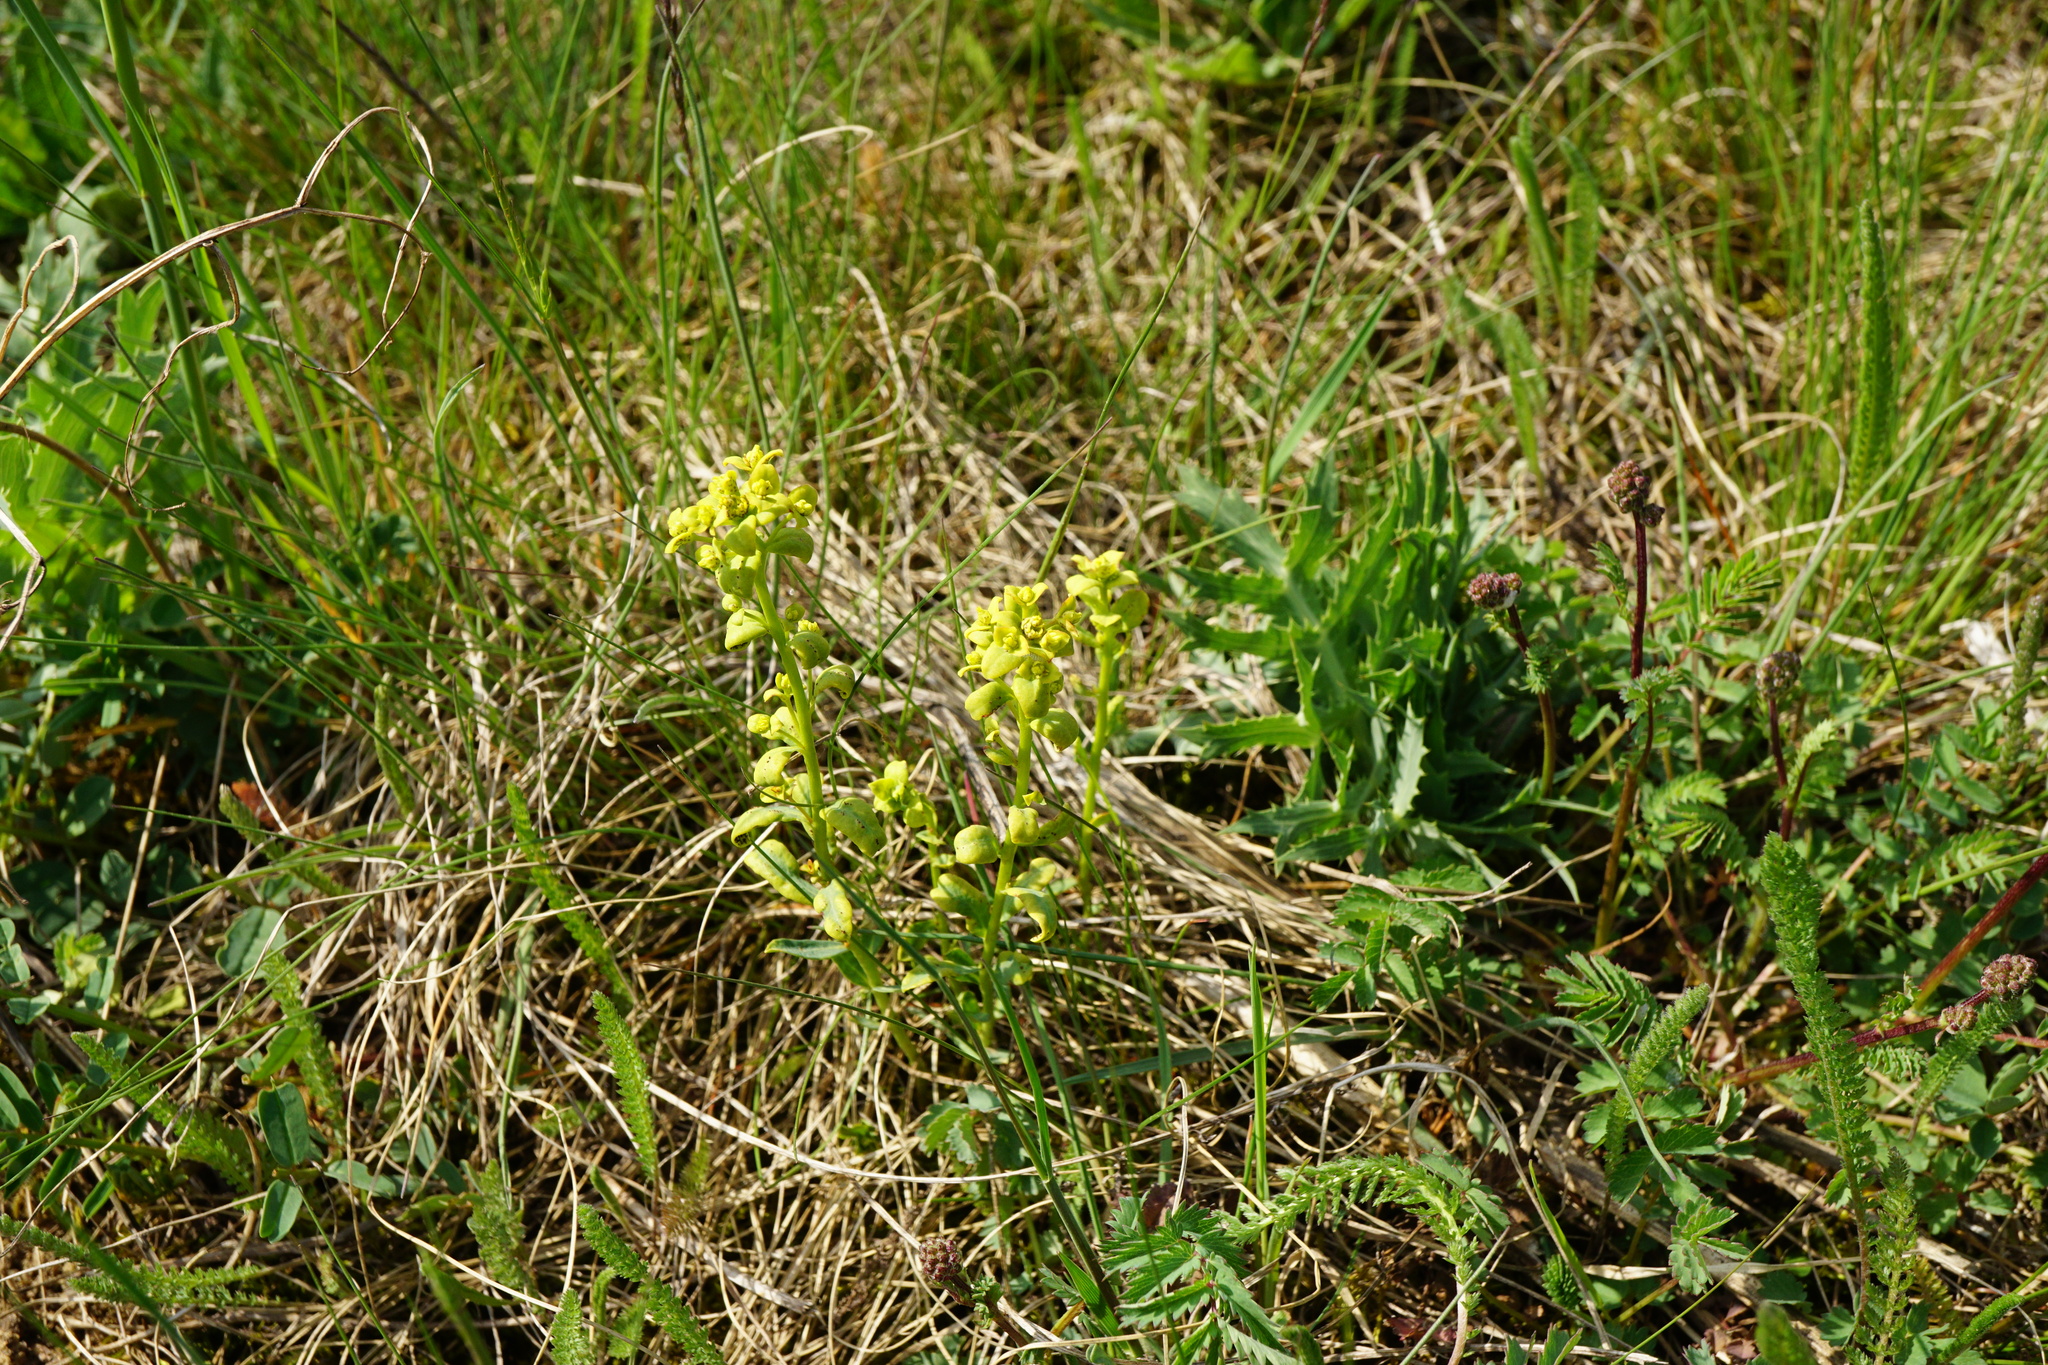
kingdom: Plantae
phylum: Tracheophyta
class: Magnoliopsida
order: Malpighiales
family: Euphorbiaceae
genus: Euphorbia
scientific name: Euphorbia cyparissias
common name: Cypress spurge
